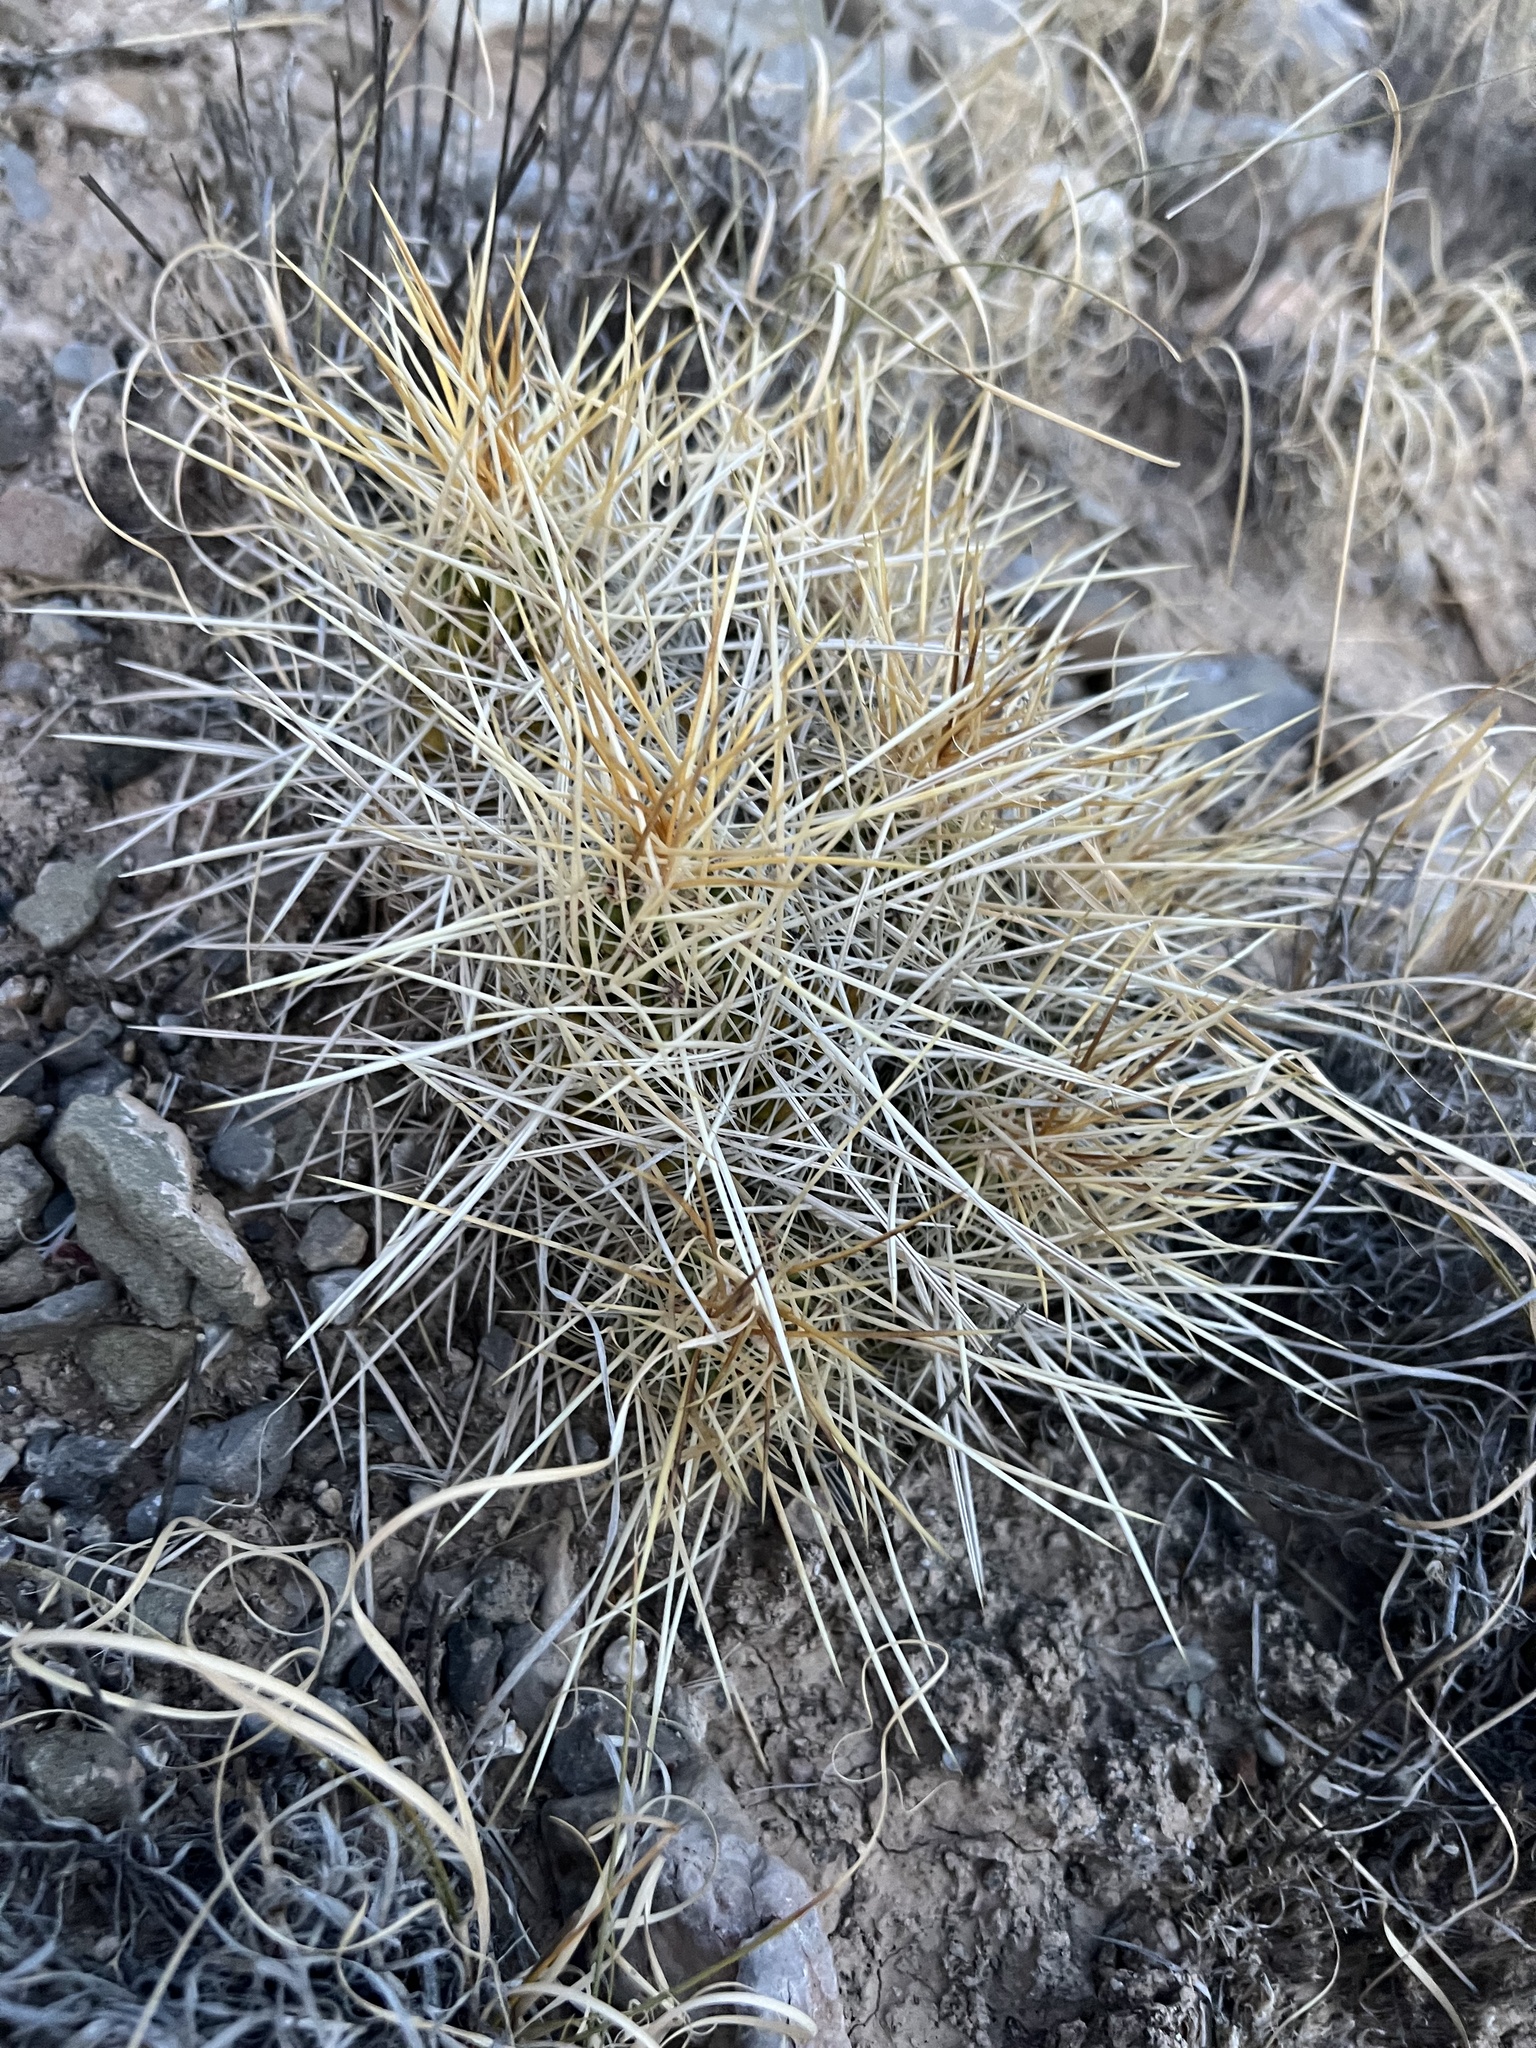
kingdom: Plantae
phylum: Tracheophyta
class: Magnoliopsida
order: Caryophyllales
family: Cactaceae
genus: Echinocereus
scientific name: Echinocereus stramineus
